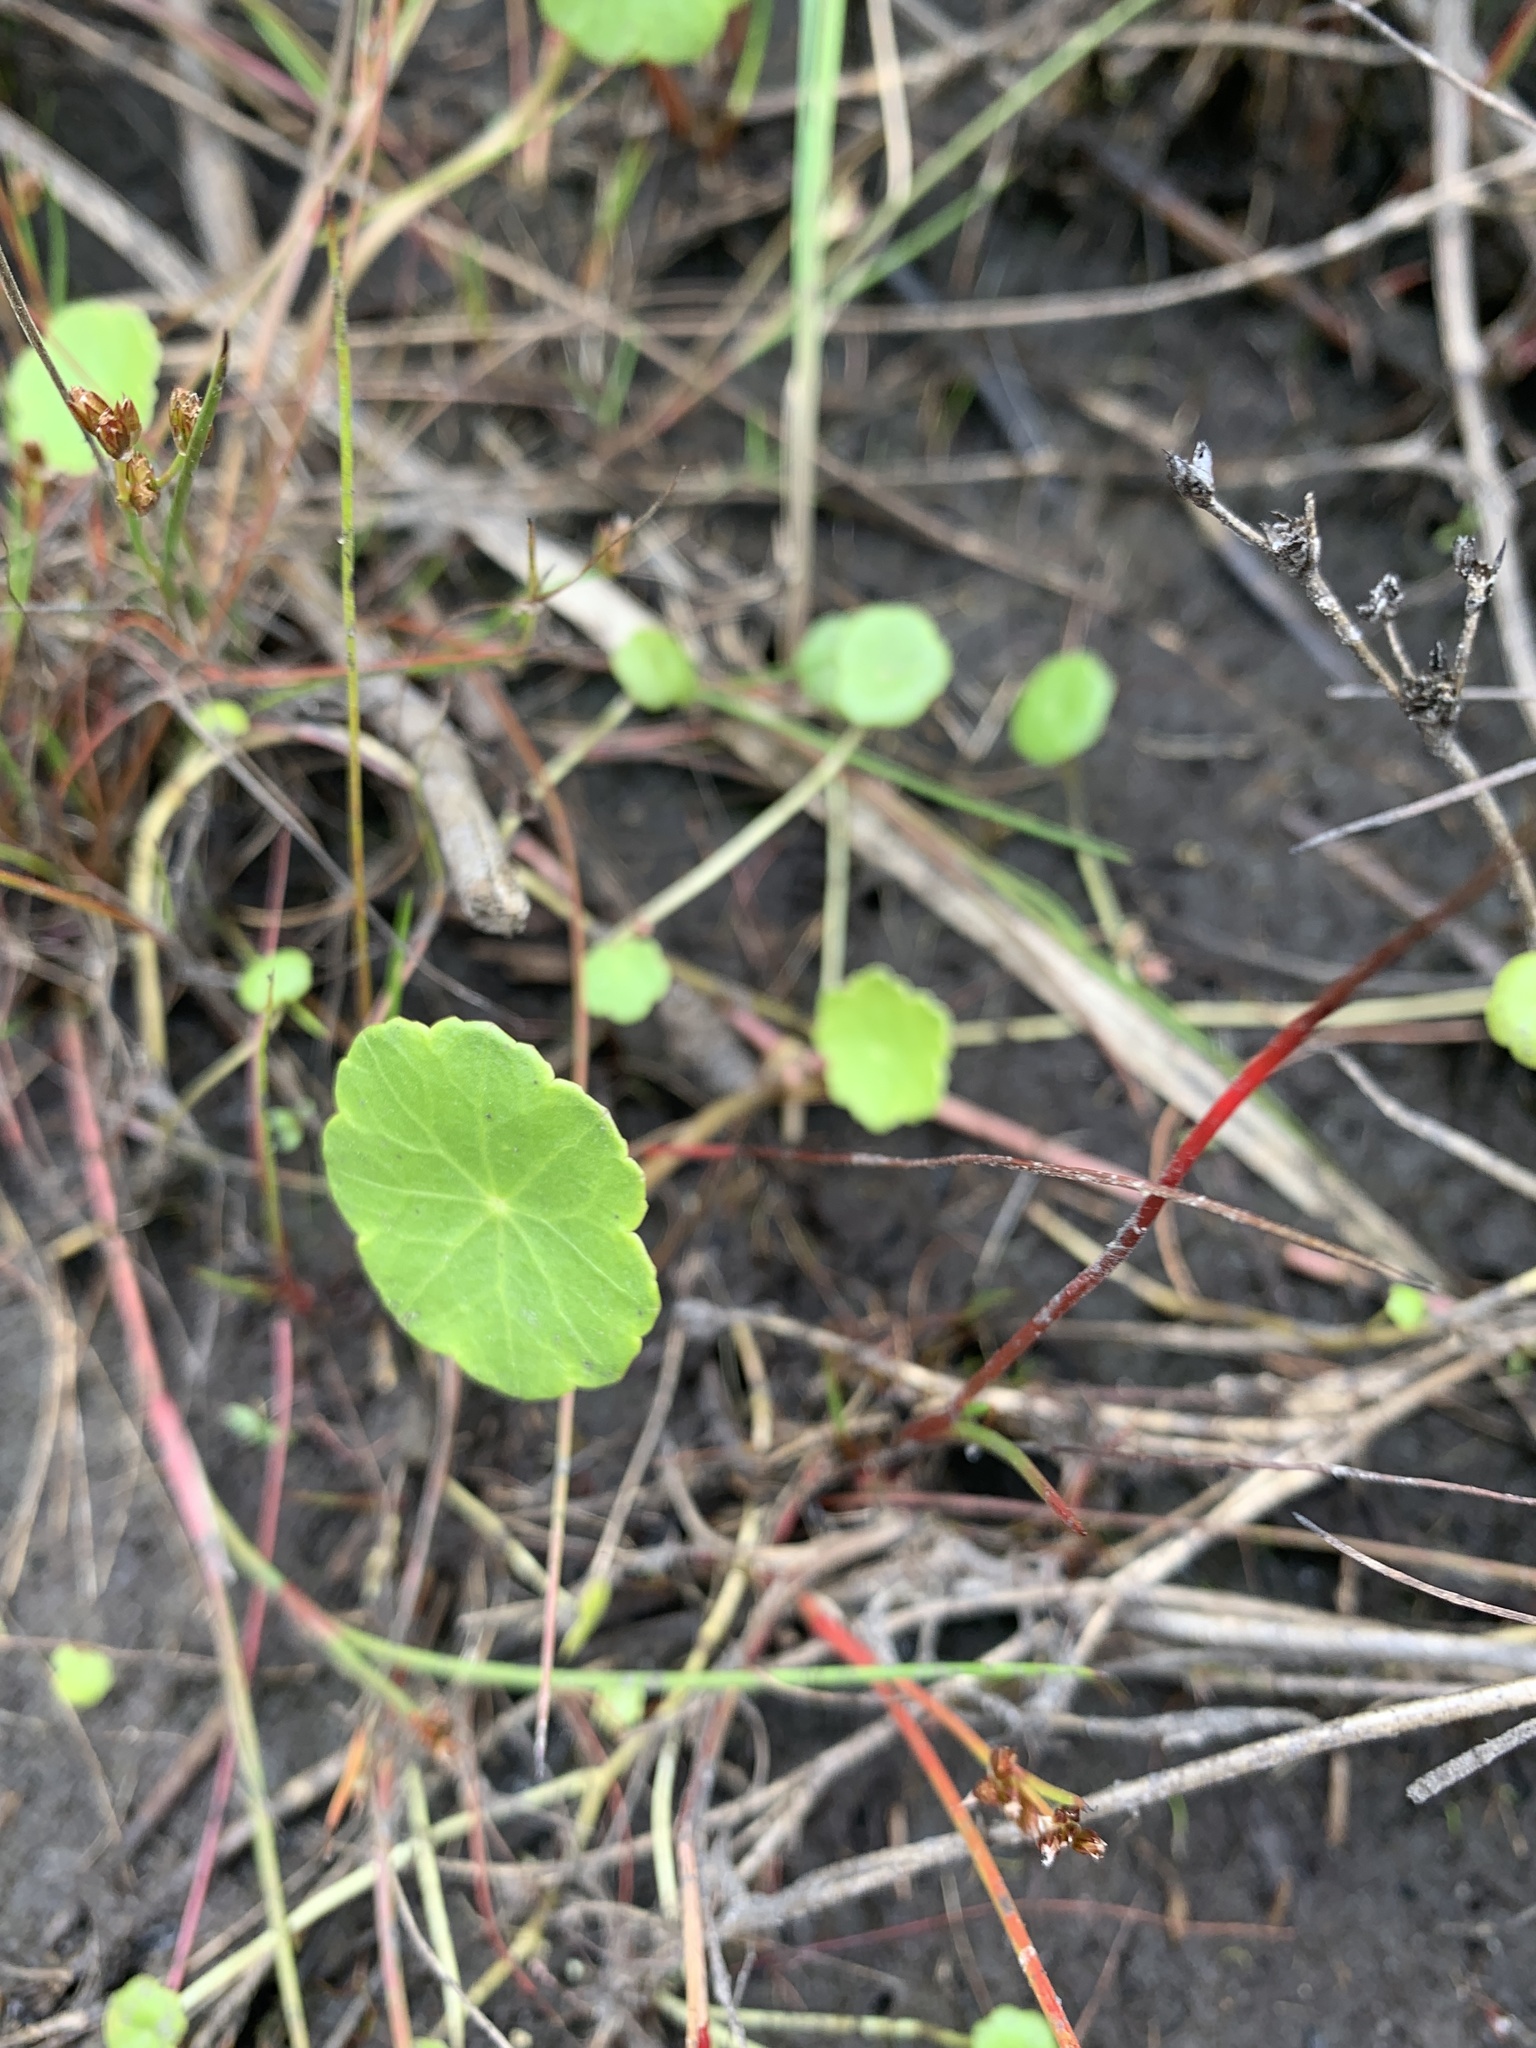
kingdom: Plantae
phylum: Tracheophyta
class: Magnoliopsida
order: Apiales
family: Araliaceae
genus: Hydrocotyle
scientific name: Hydrocotyle vulgaris
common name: Marsh pennywort
